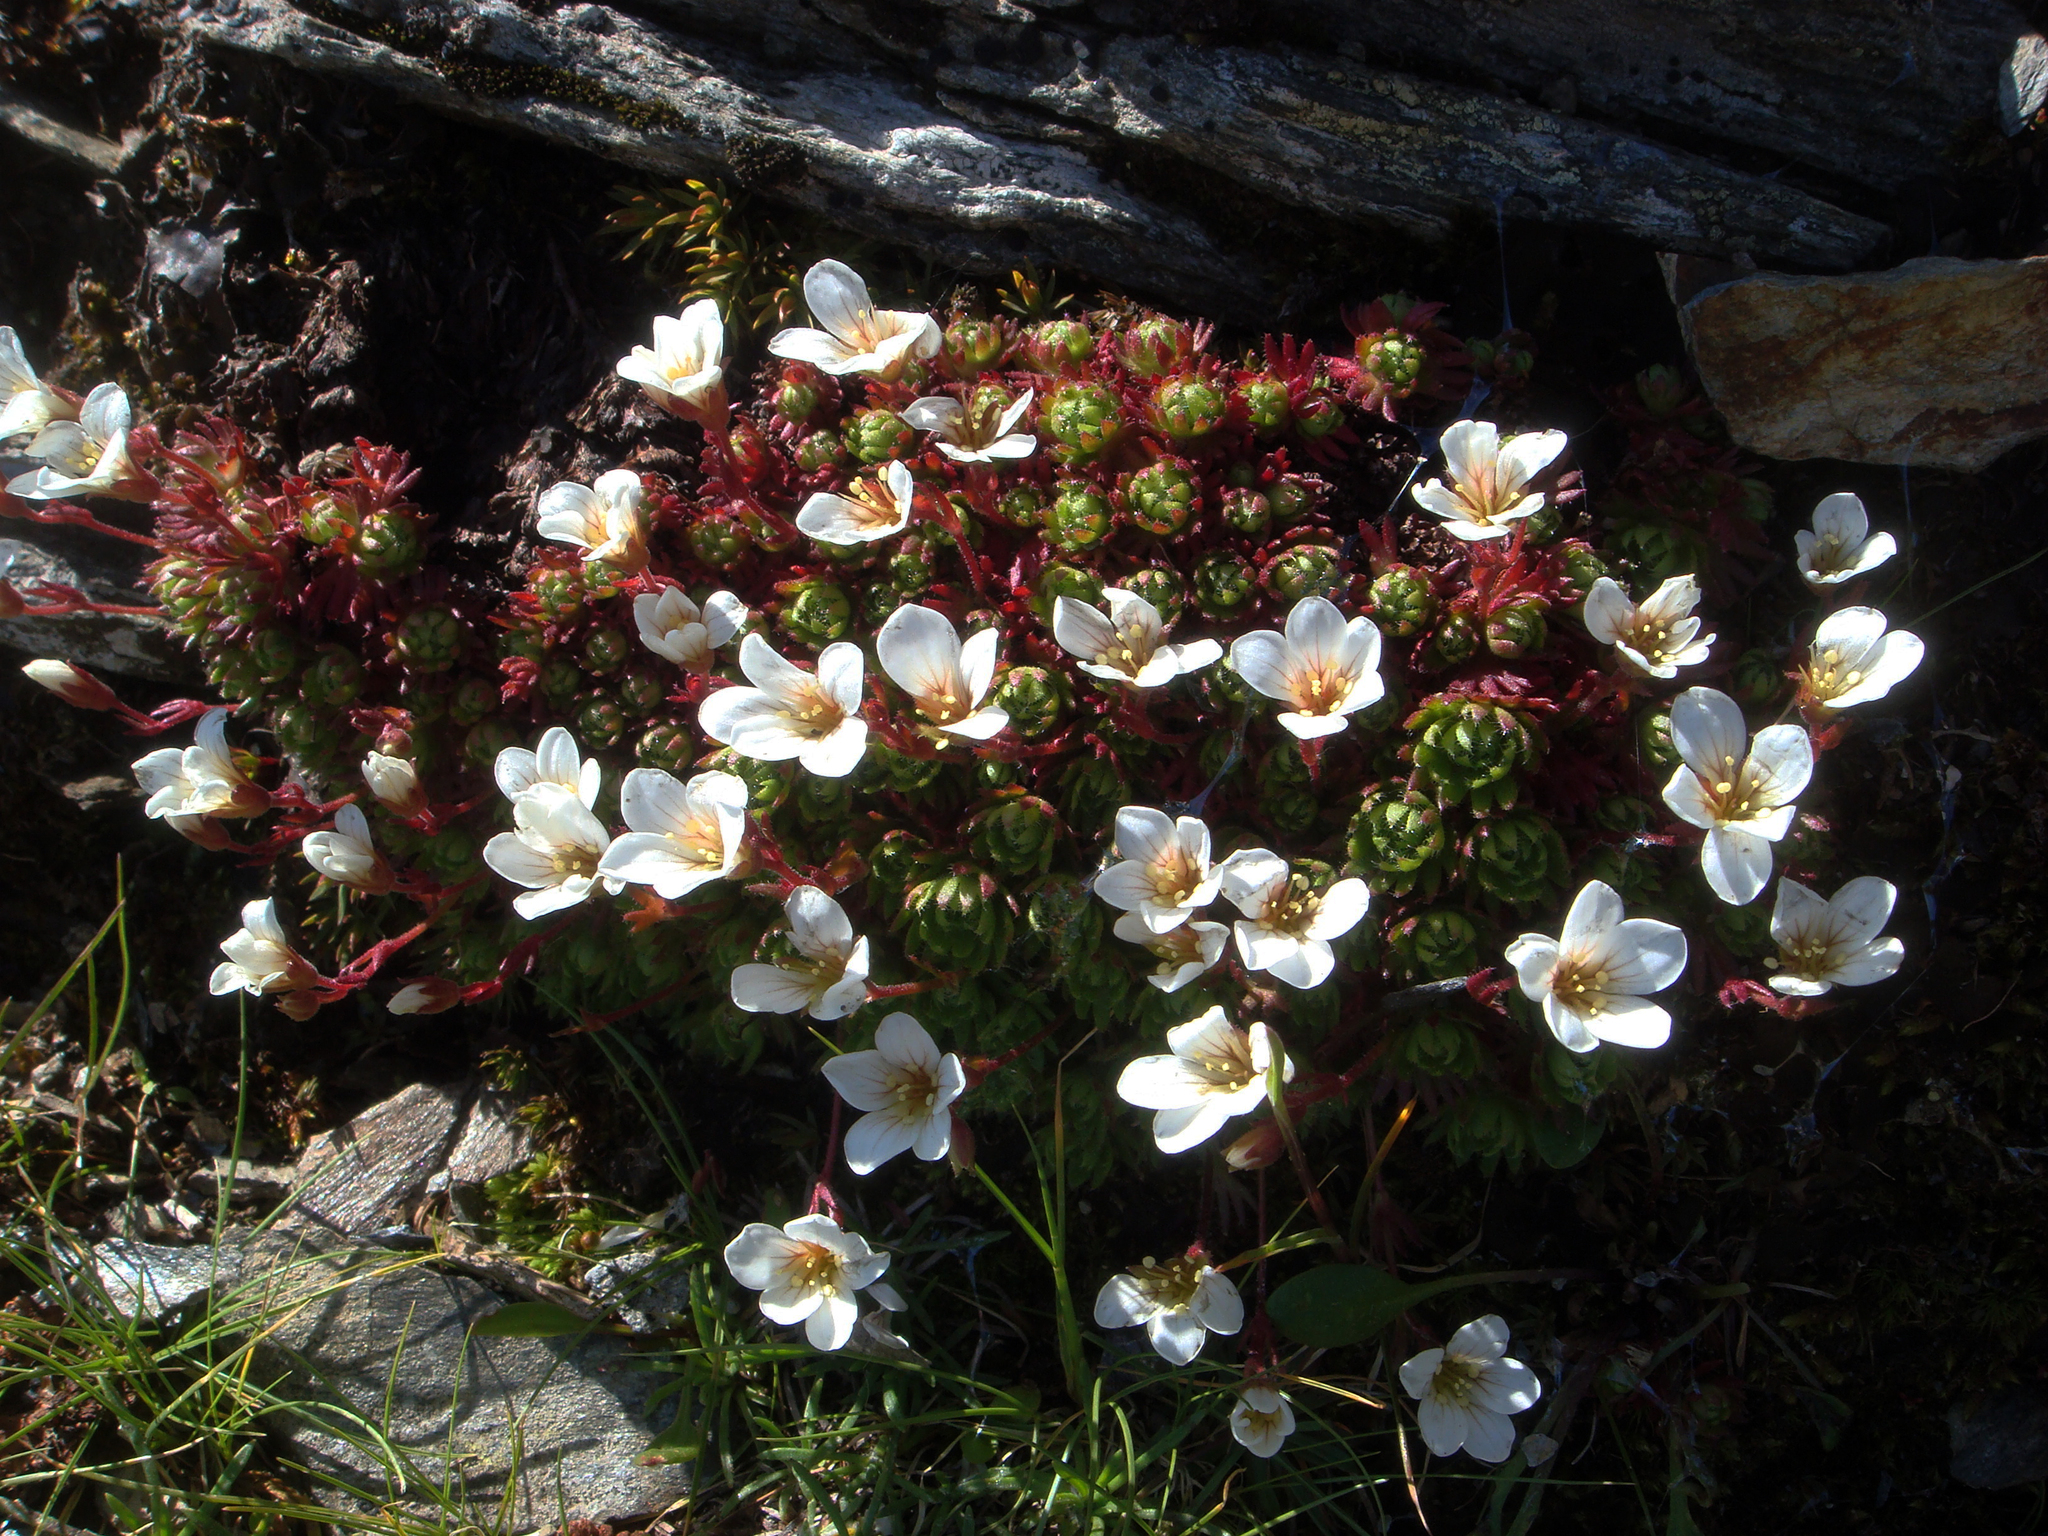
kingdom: Plantae
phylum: Tracheophyta
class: Magnoliopsida
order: Saxifragales
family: Saxifragaceae
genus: Saxifraga
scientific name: Saxifraga pedemontana
